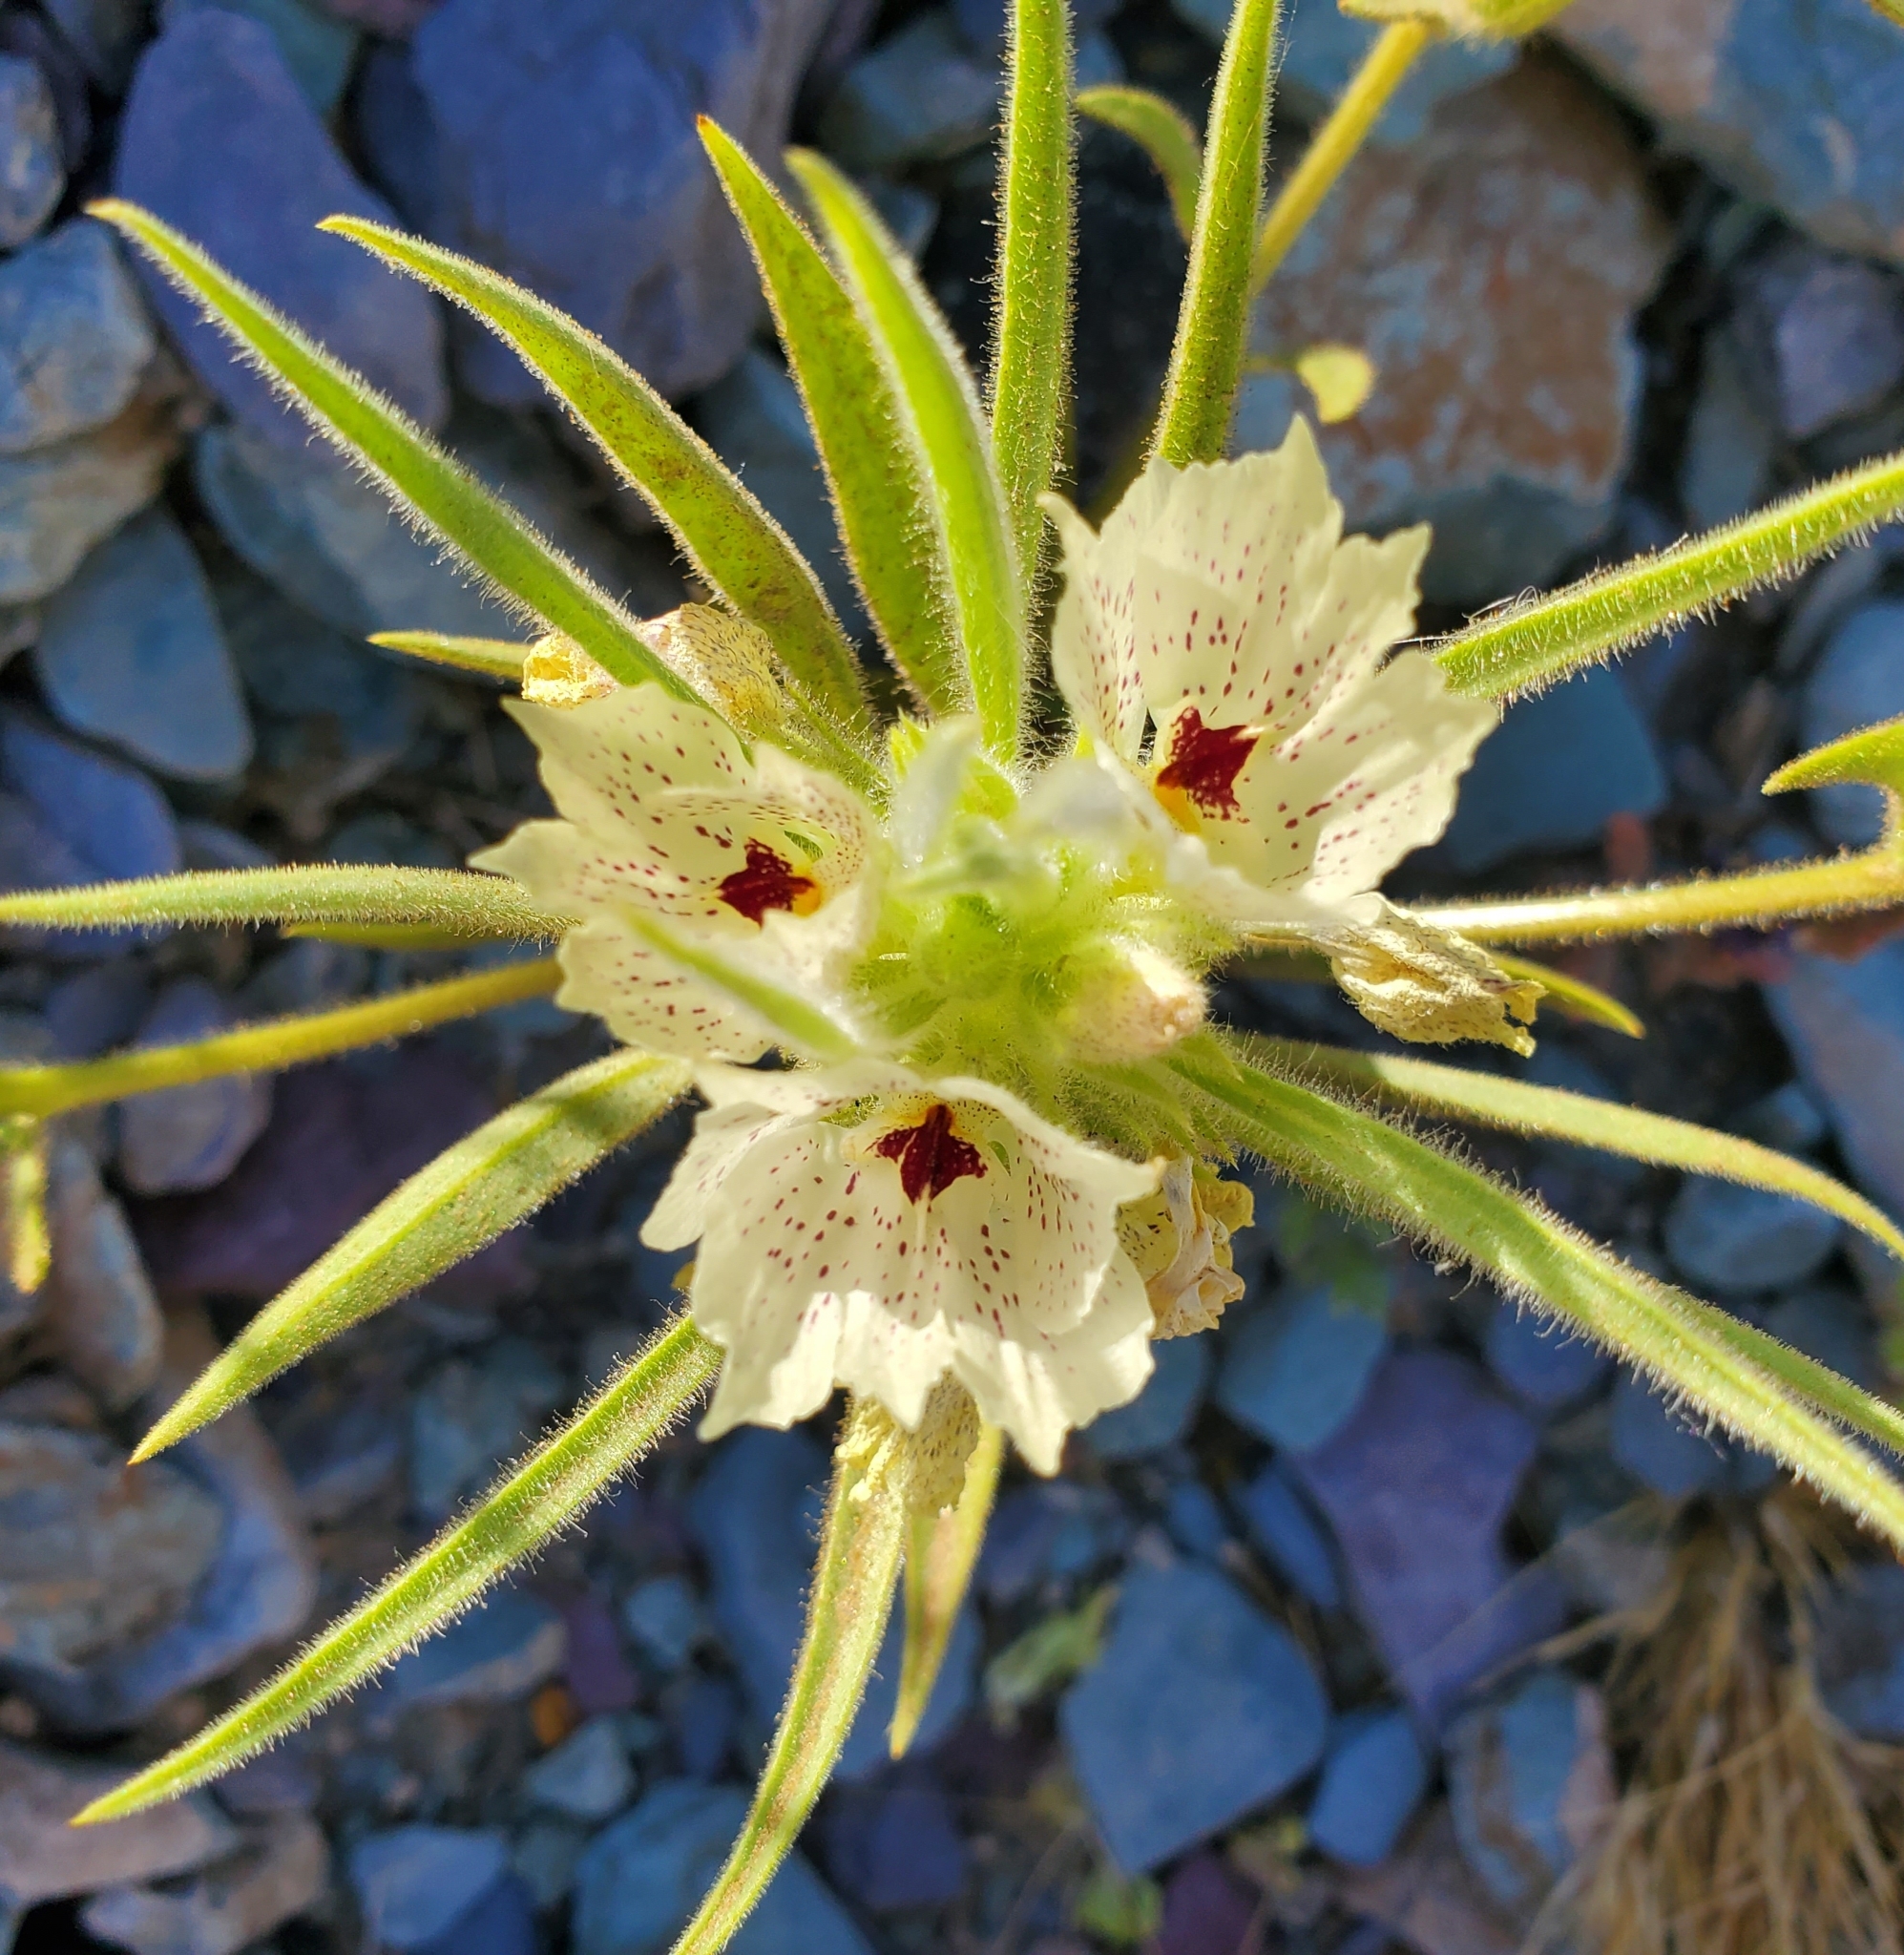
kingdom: Plantae
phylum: Tracheophyta
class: Magnoliopsida
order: Lamiales
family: Plantaginaceae
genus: Mohavea
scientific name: Mohavea confertiflora
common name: Ghost flower
